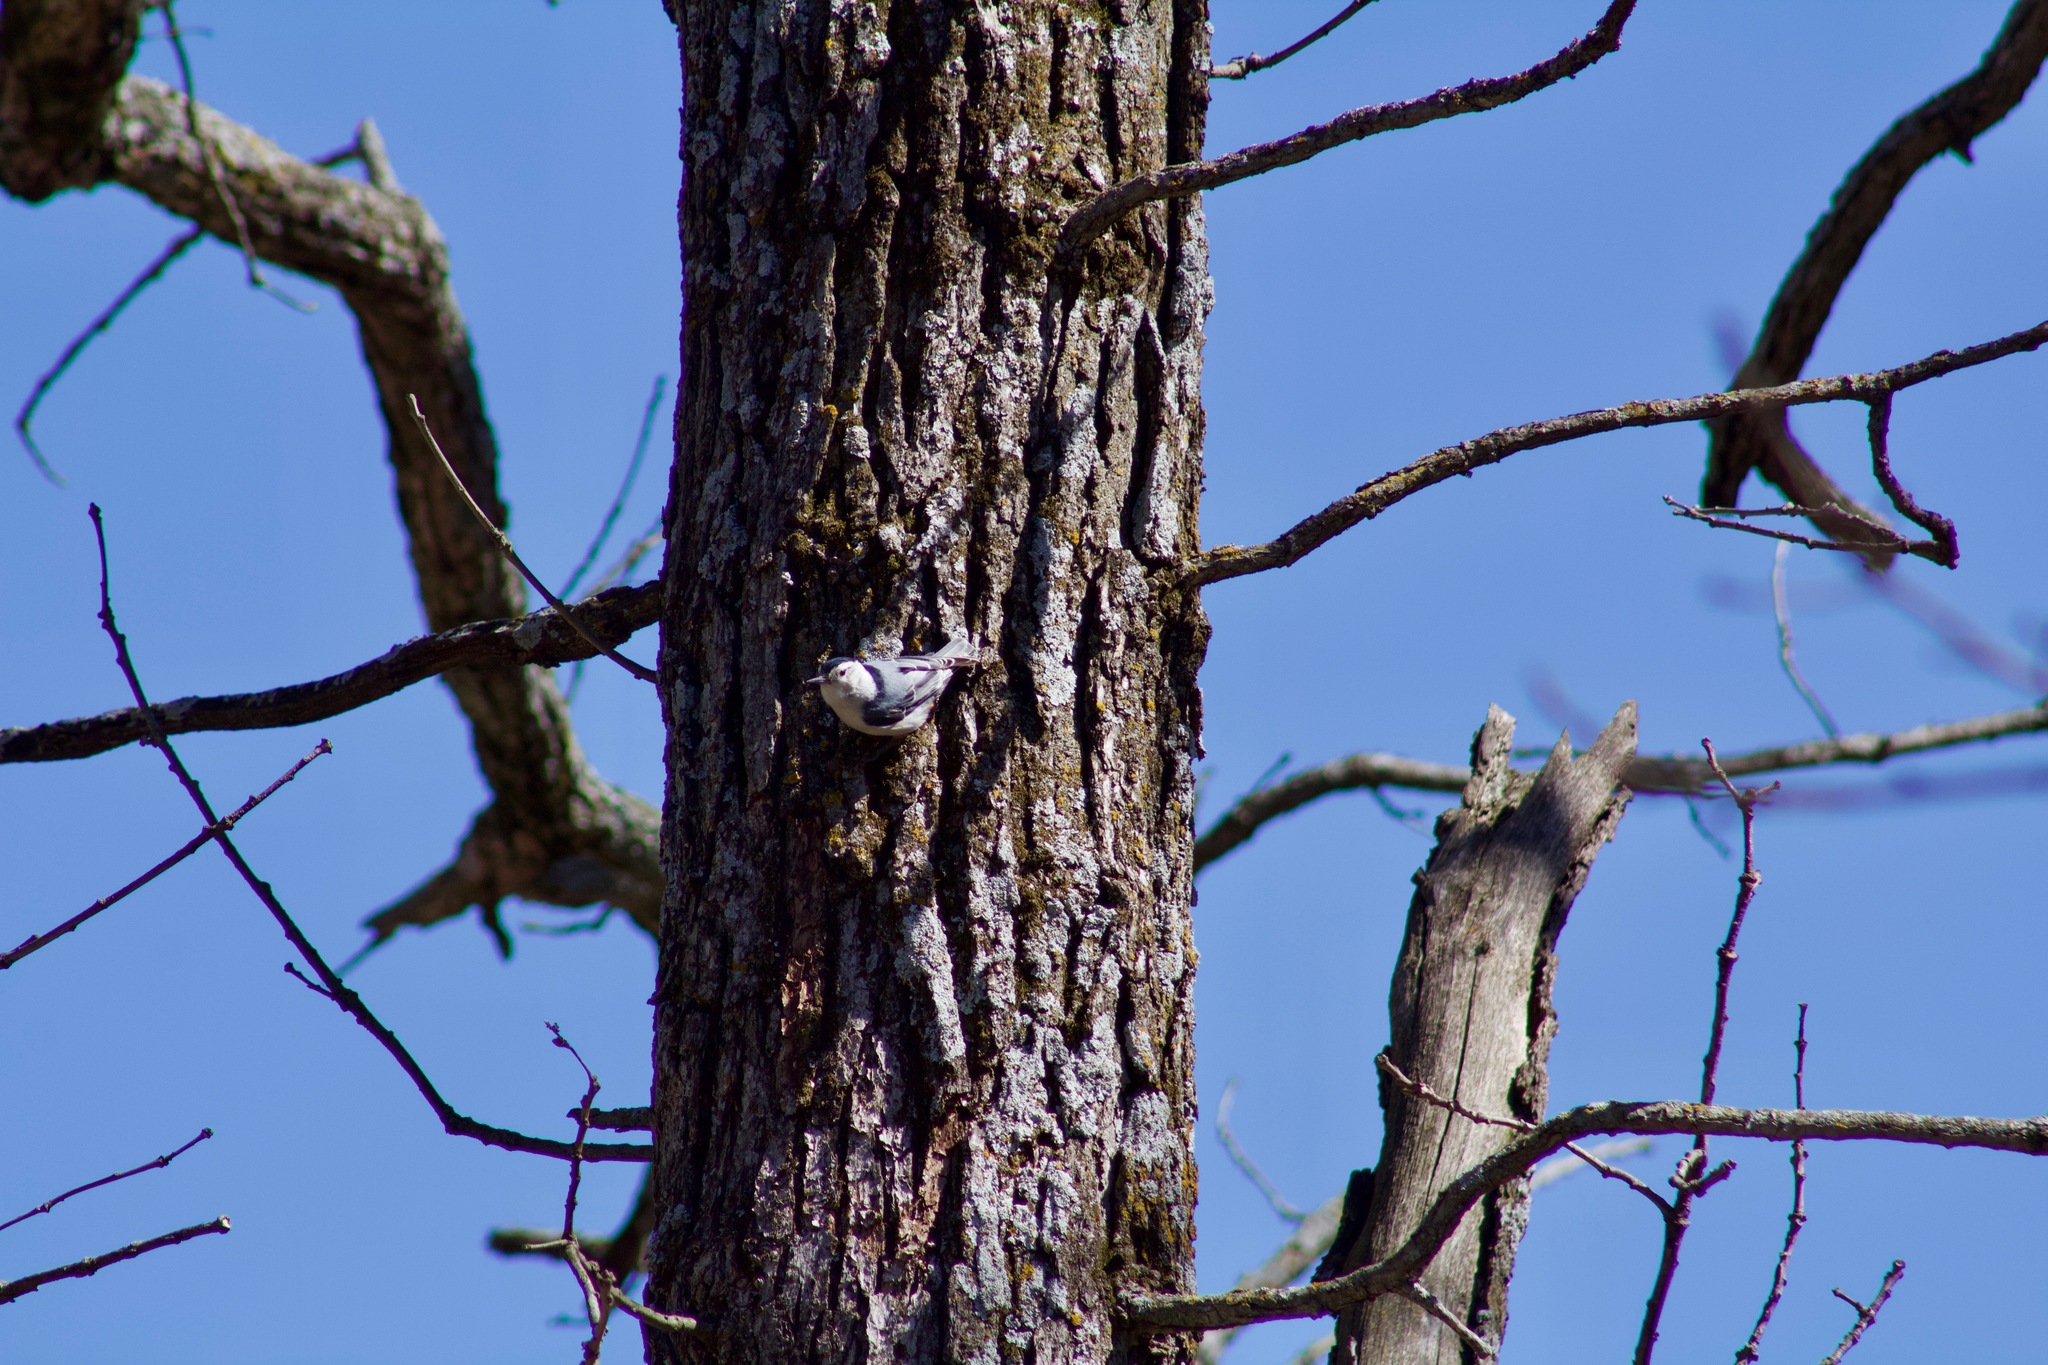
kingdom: Animalia
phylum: Chordata
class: Aves
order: Passeriformes
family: Sittidae
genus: Sitta
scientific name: Sitta carolinensis
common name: White-breasted nuthatch
